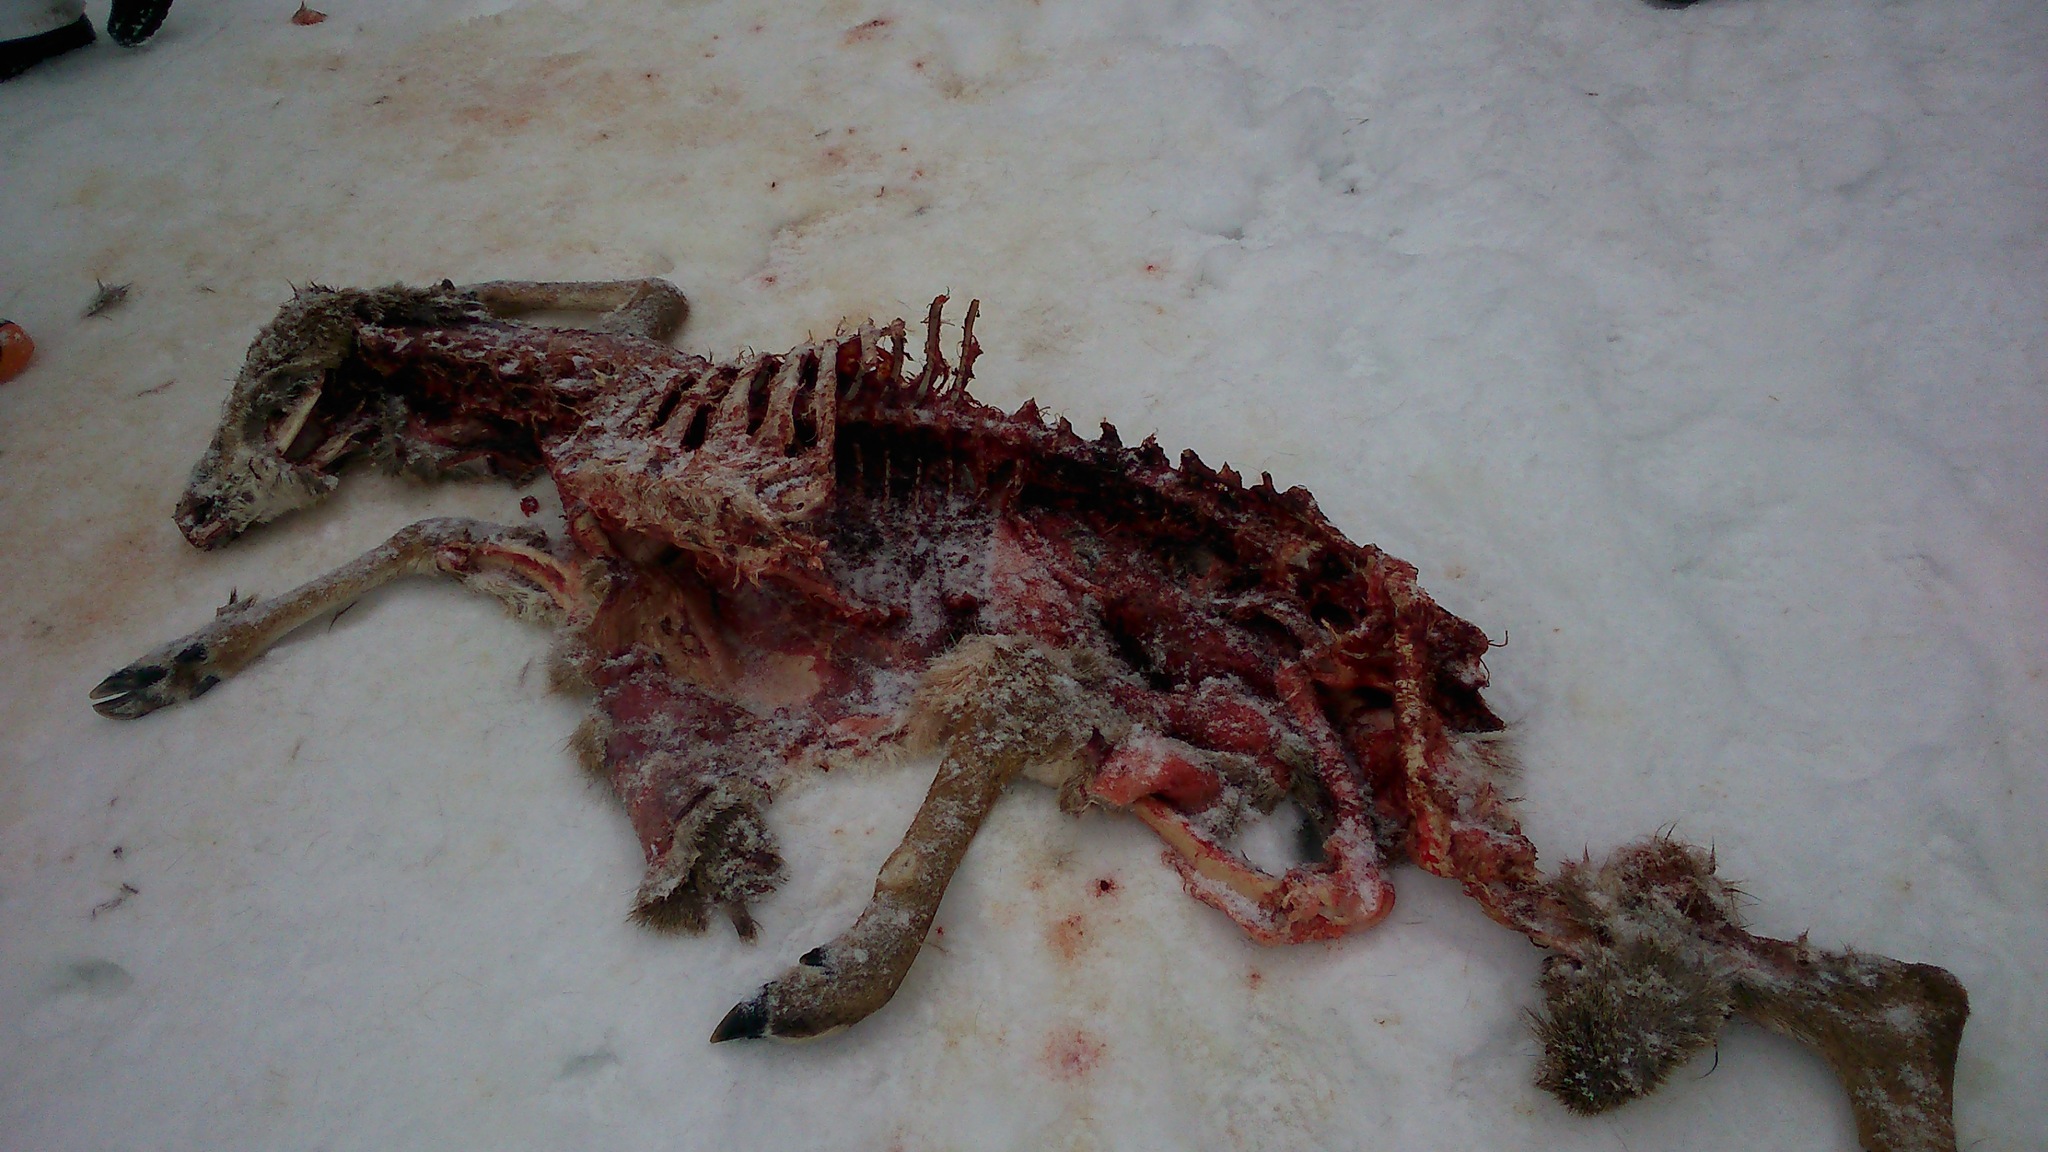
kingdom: Animalia
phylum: Chordata
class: Mammalia
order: Artiodactyla
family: Cervidae
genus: Odocoileus
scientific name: Odocoileus virginianus
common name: White-tailed deer
